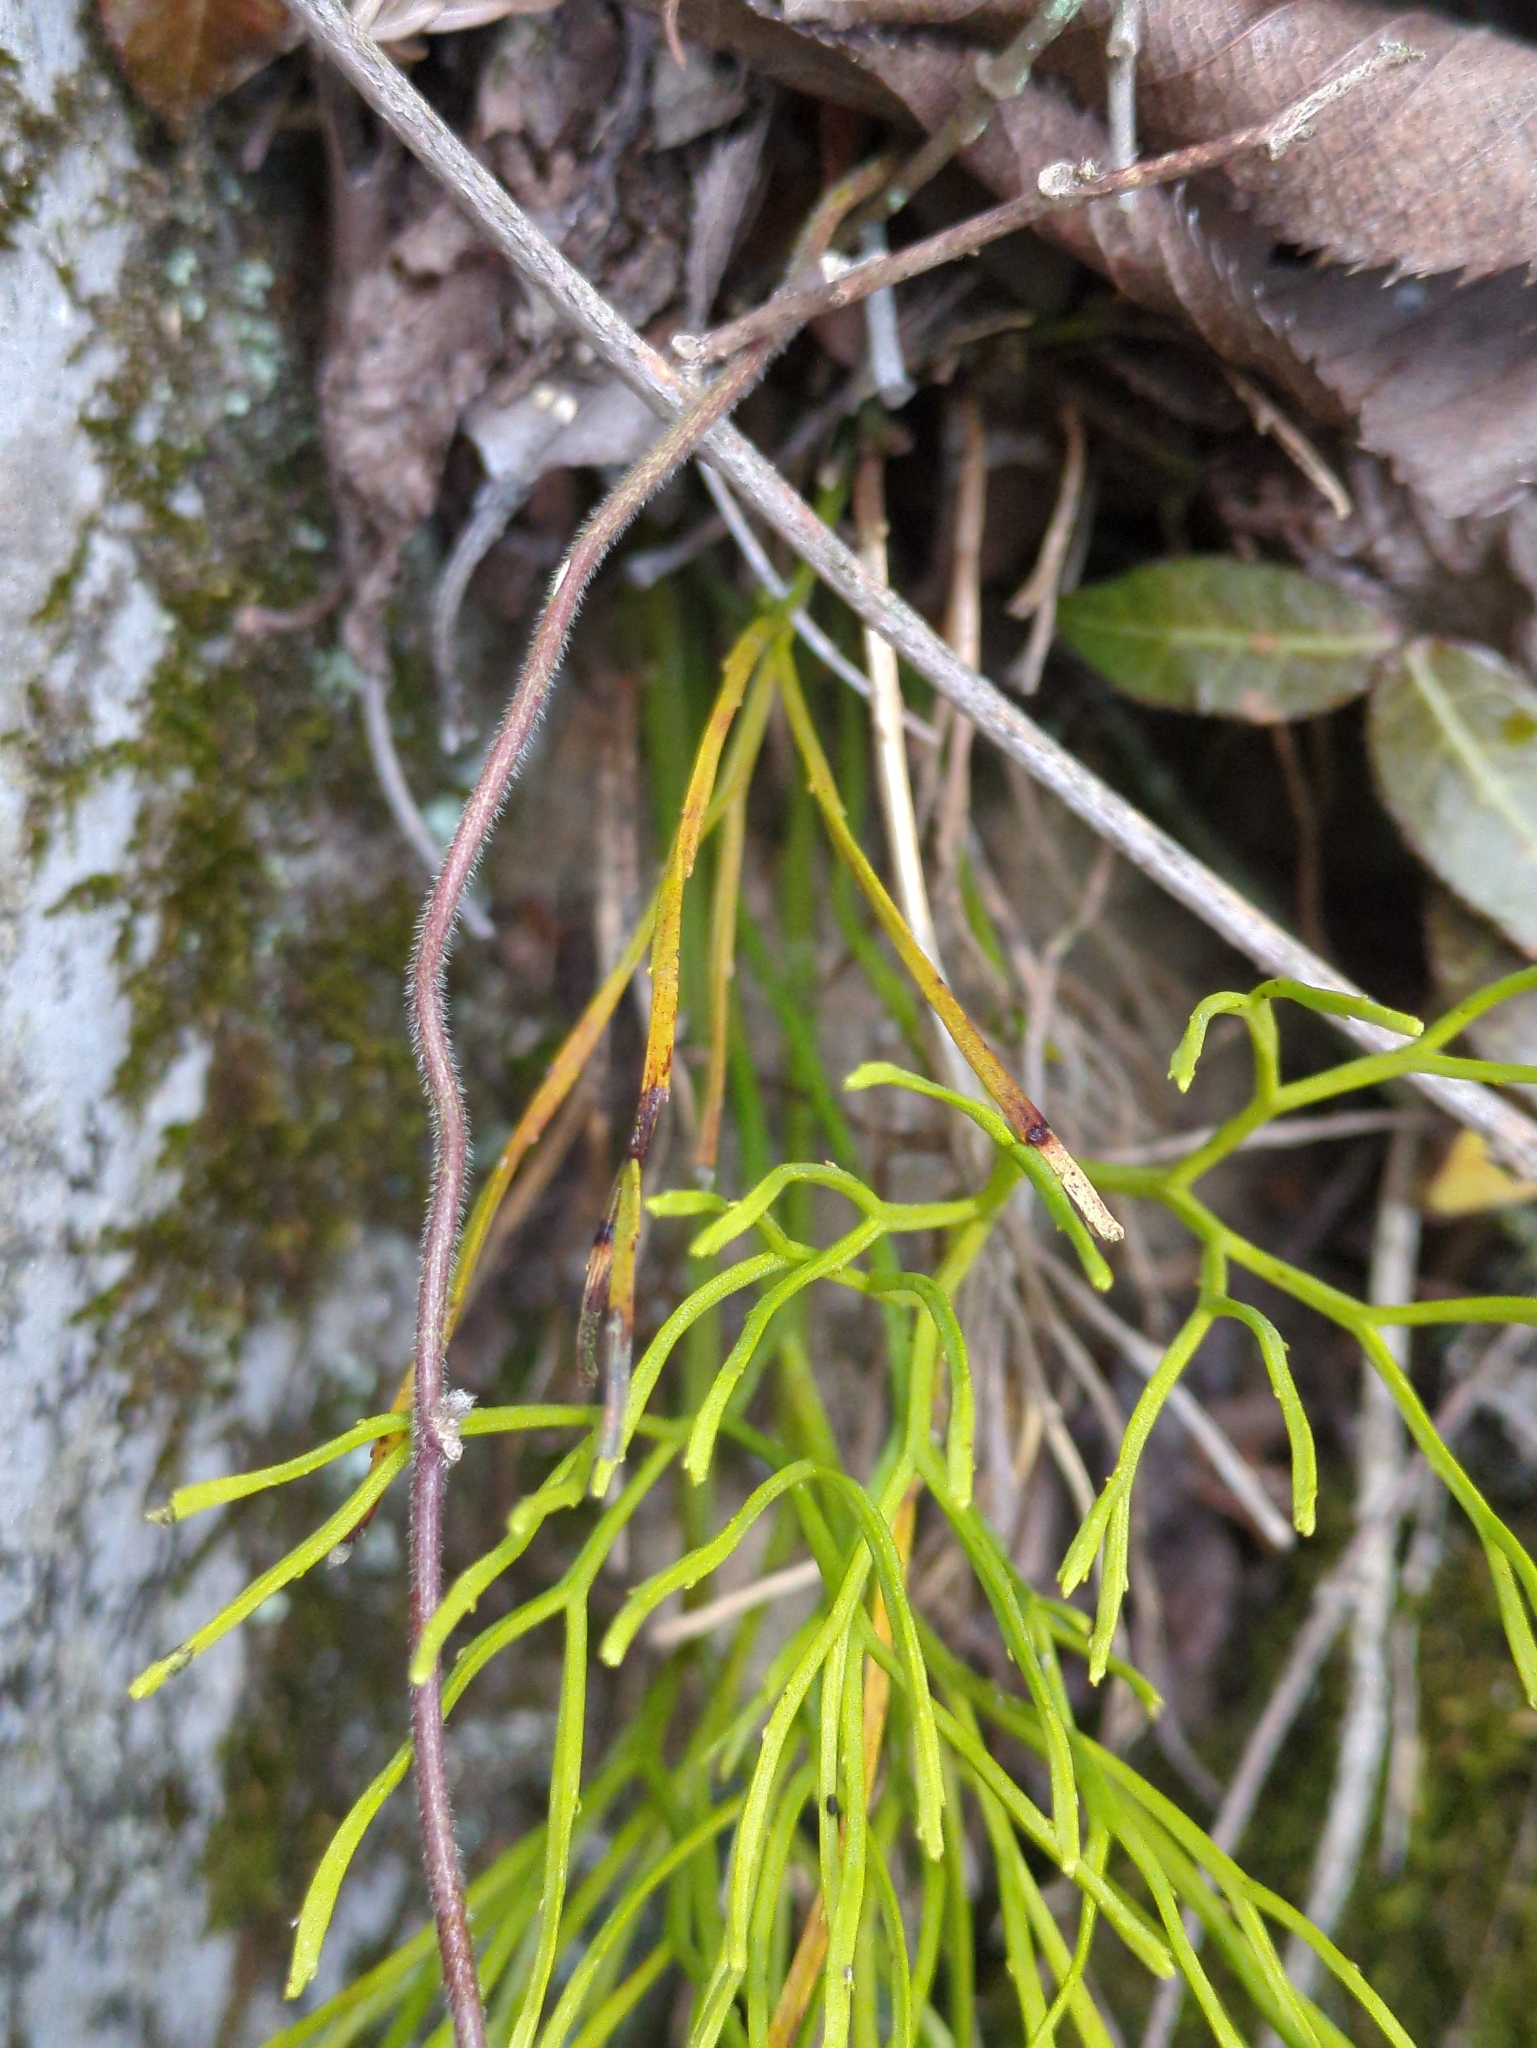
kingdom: Plantae
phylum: Tracheophyta
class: Polypodiopsida
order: Psilotales
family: Psilotaceae
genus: Psilotum
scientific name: Psilotum nudum
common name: Skeleton fork fern
